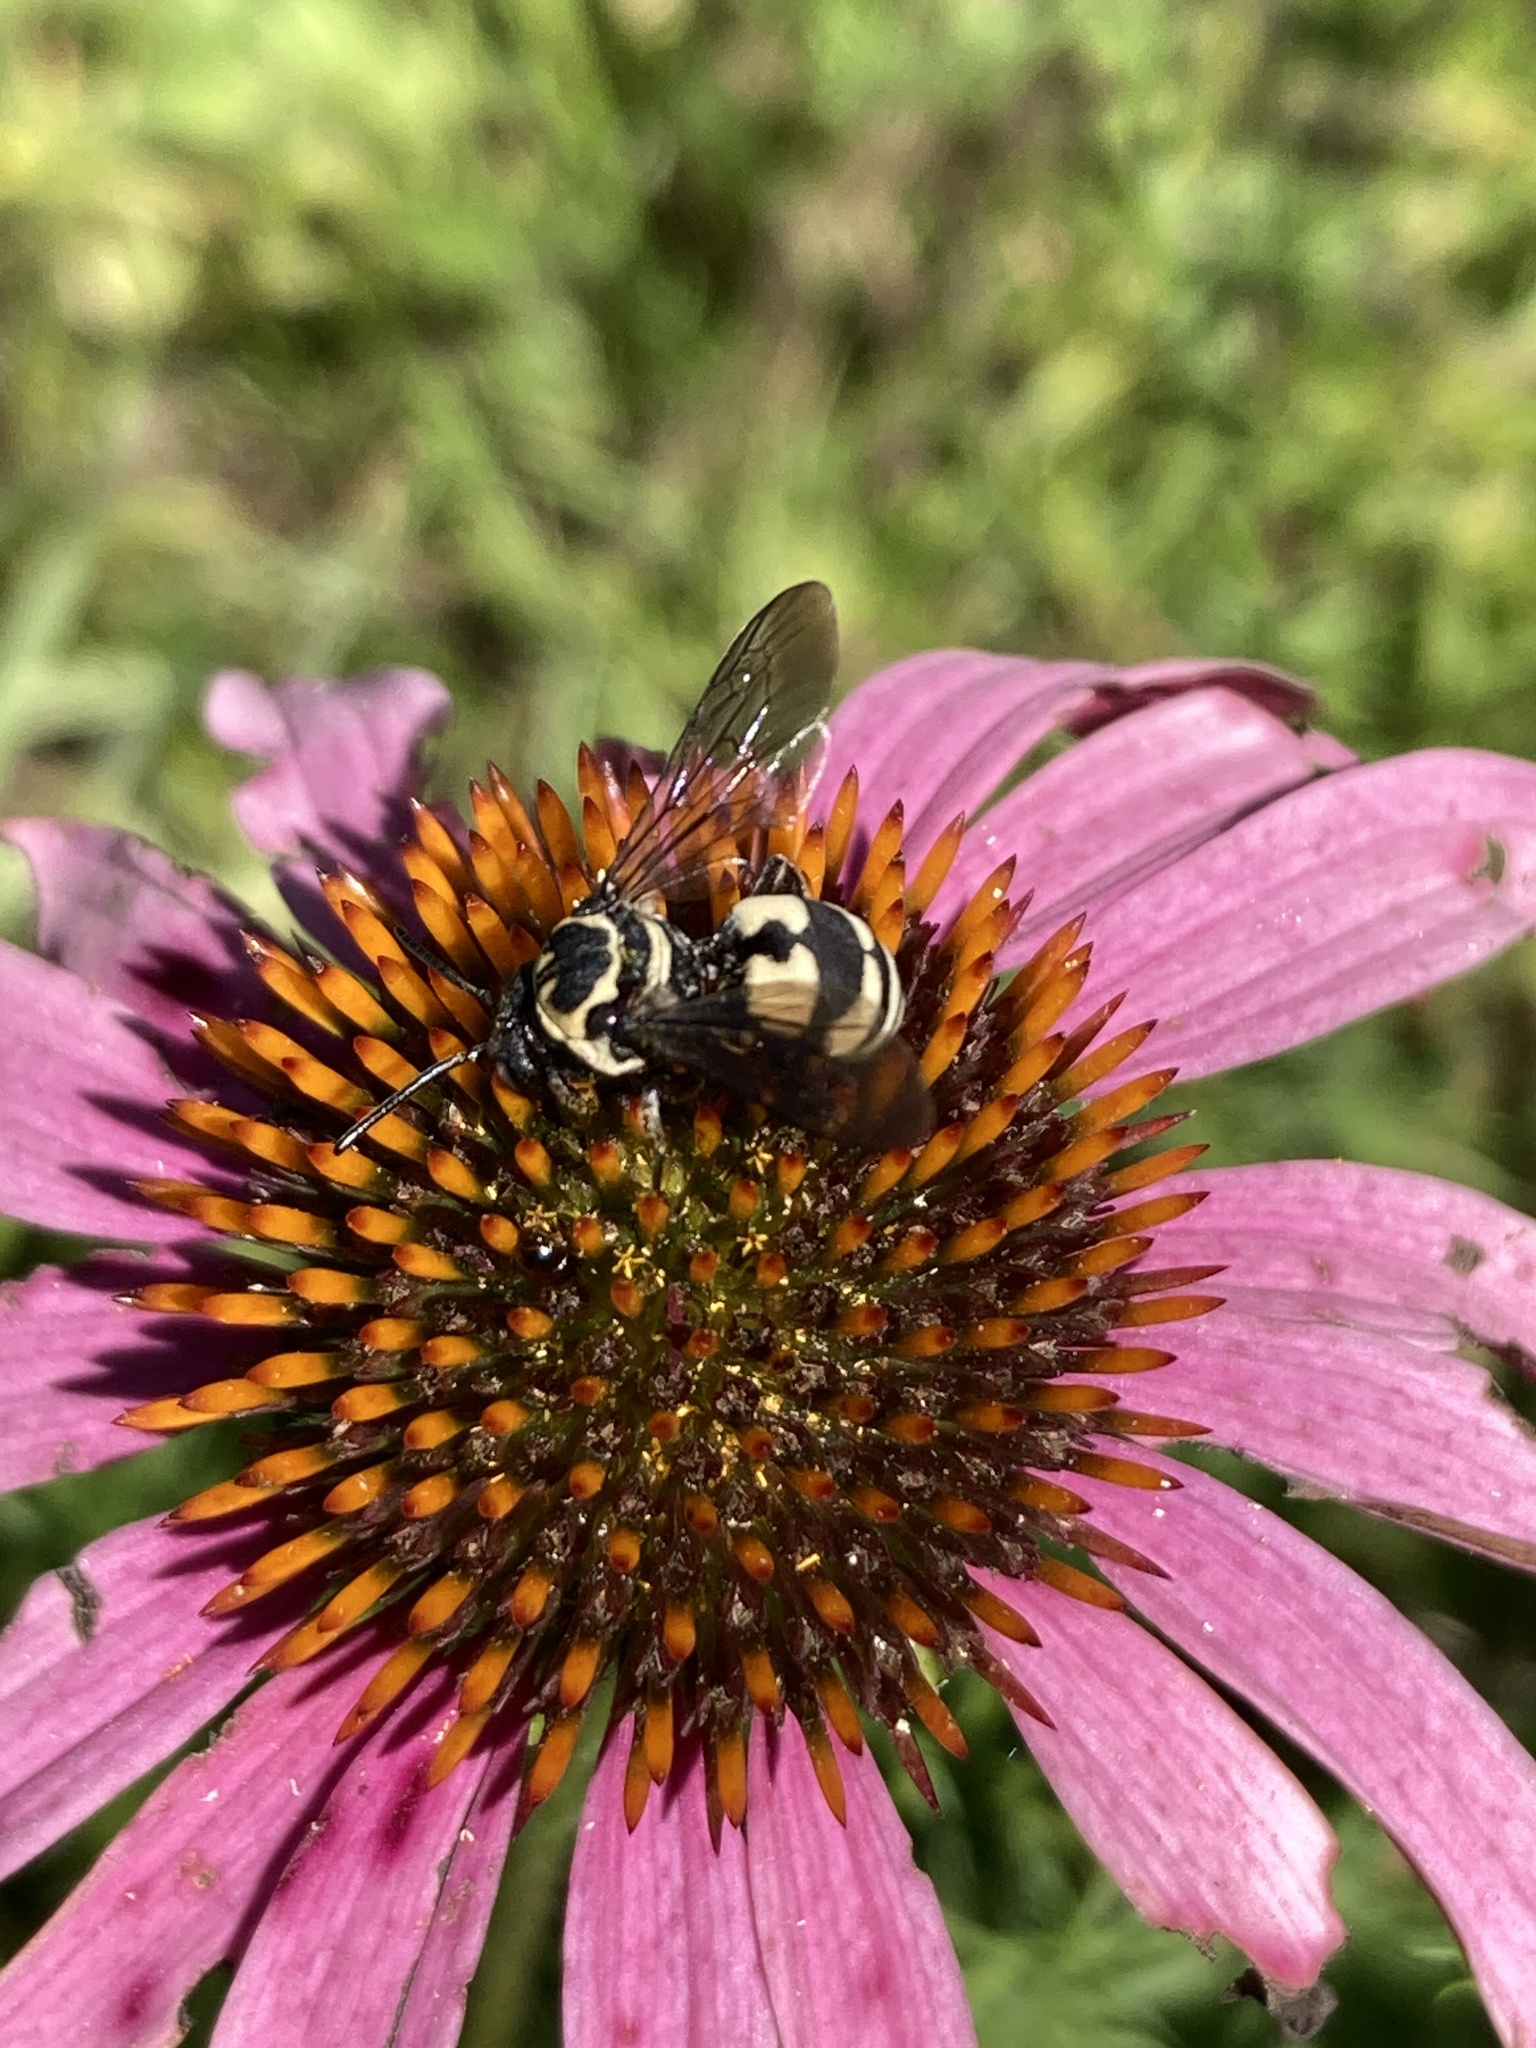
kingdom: Animalia
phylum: Arthropoda
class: Insecta
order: Hymenoptera
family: Apidae
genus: Triepeolus
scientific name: Triepeolus remigatus
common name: Squash longhorn-cuckoo
